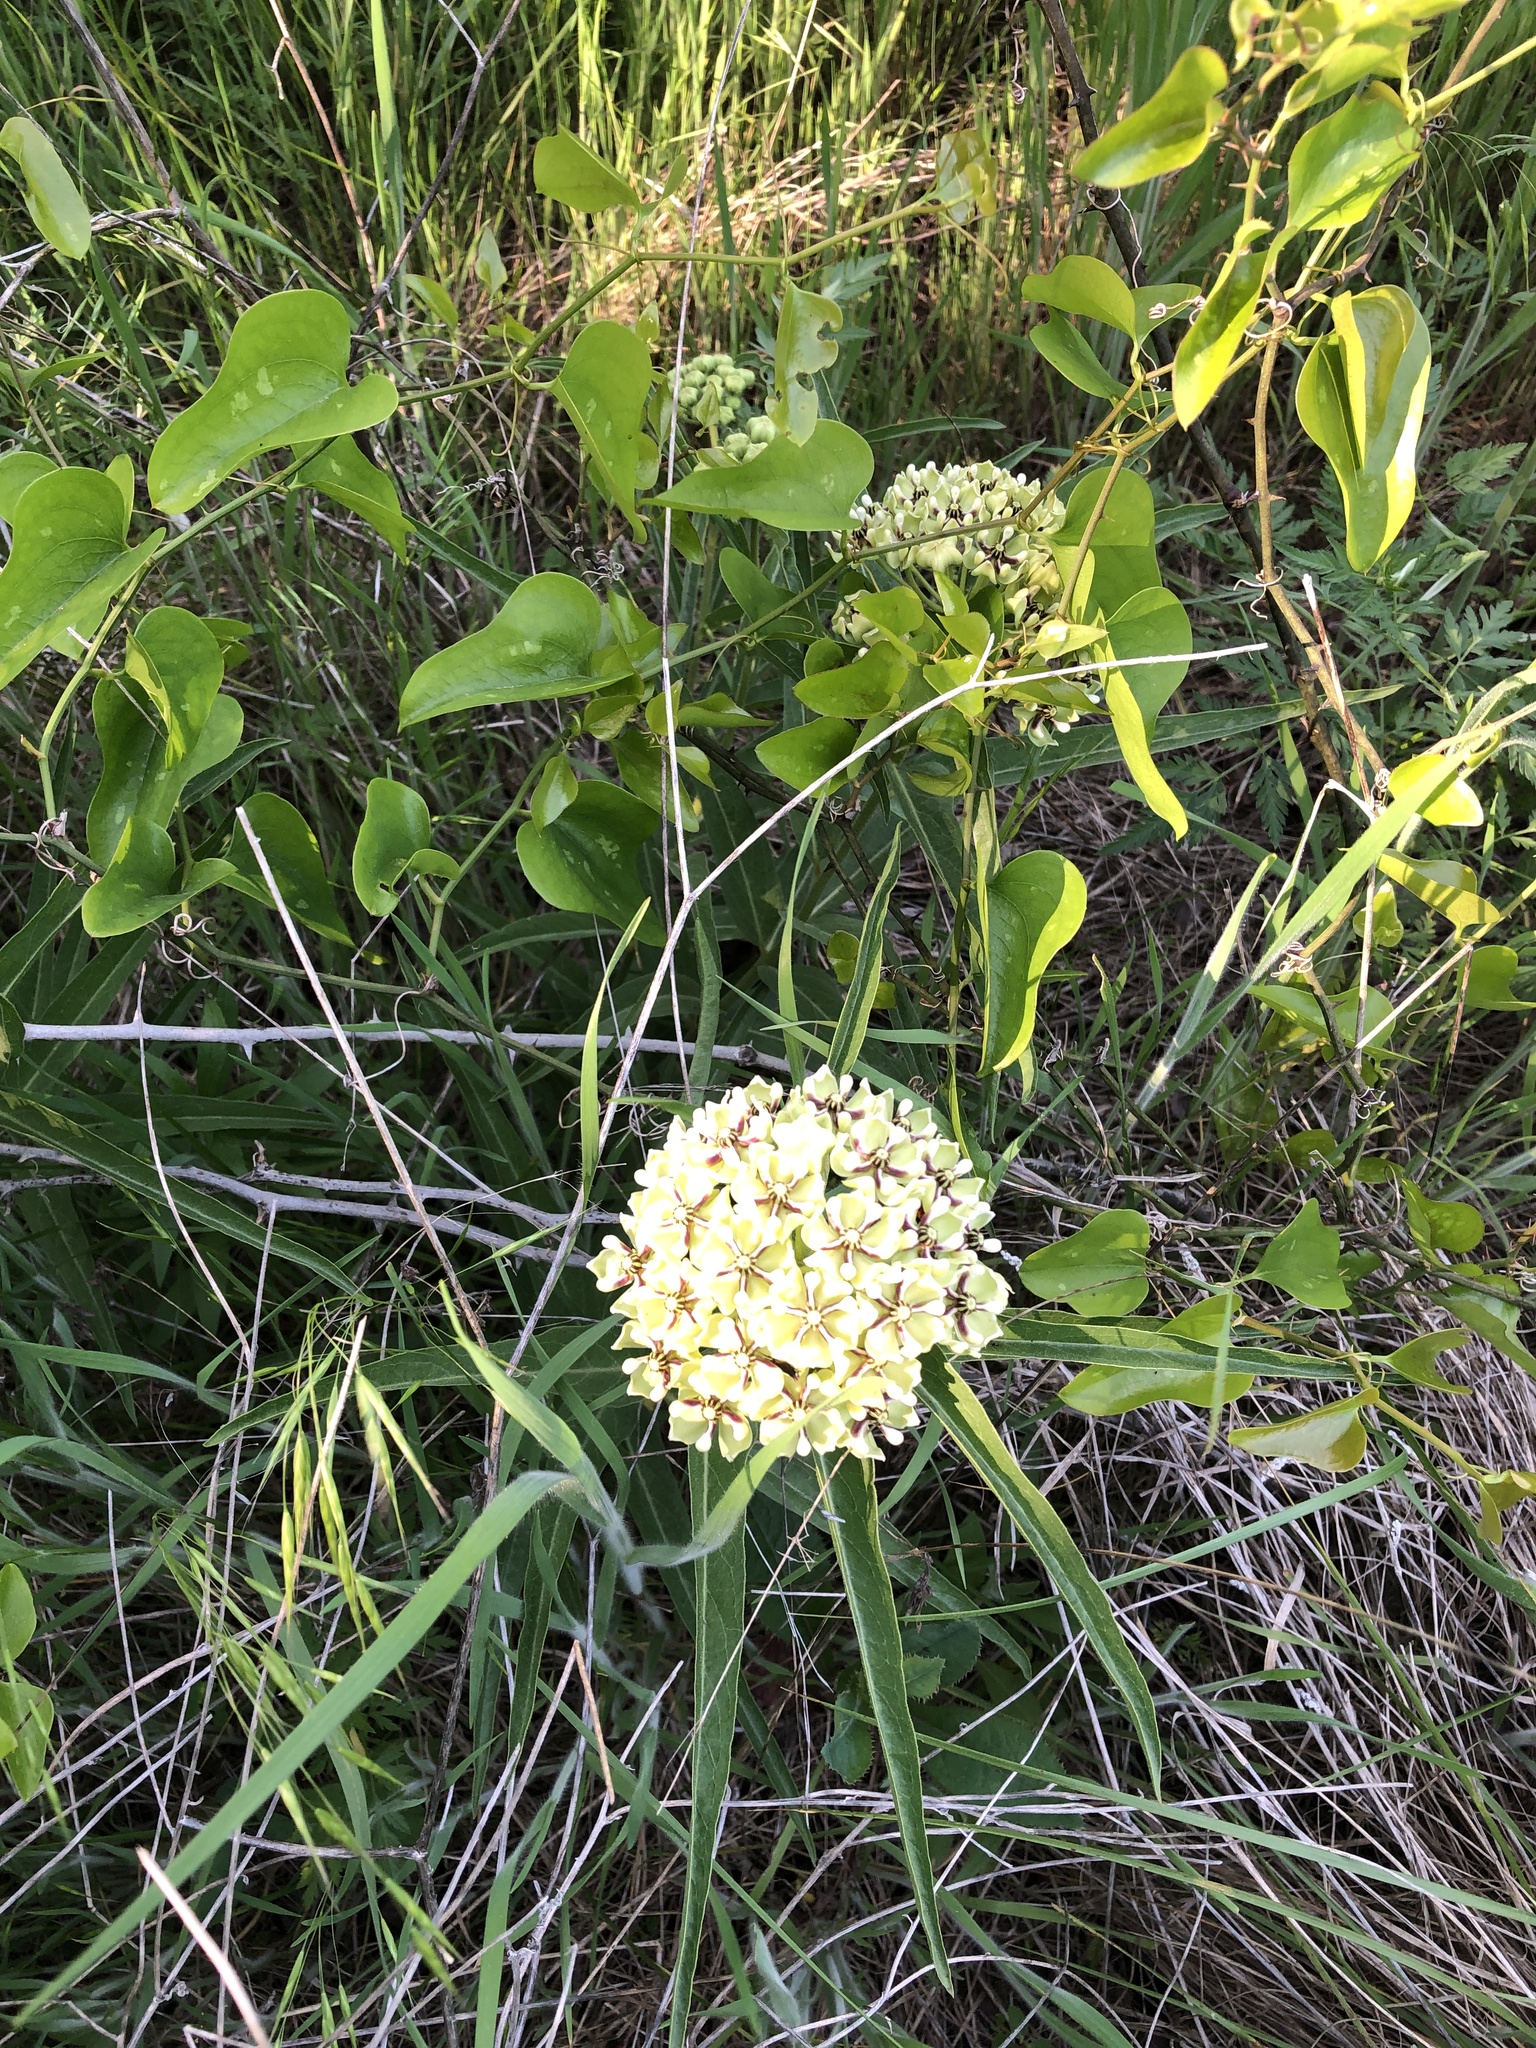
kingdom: Plantae
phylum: Tracheophyta
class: Magnoliopsida
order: Gentianales
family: Apocynaceae
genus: Asclepias
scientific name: Asclepias asperula
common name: Antelope horns
